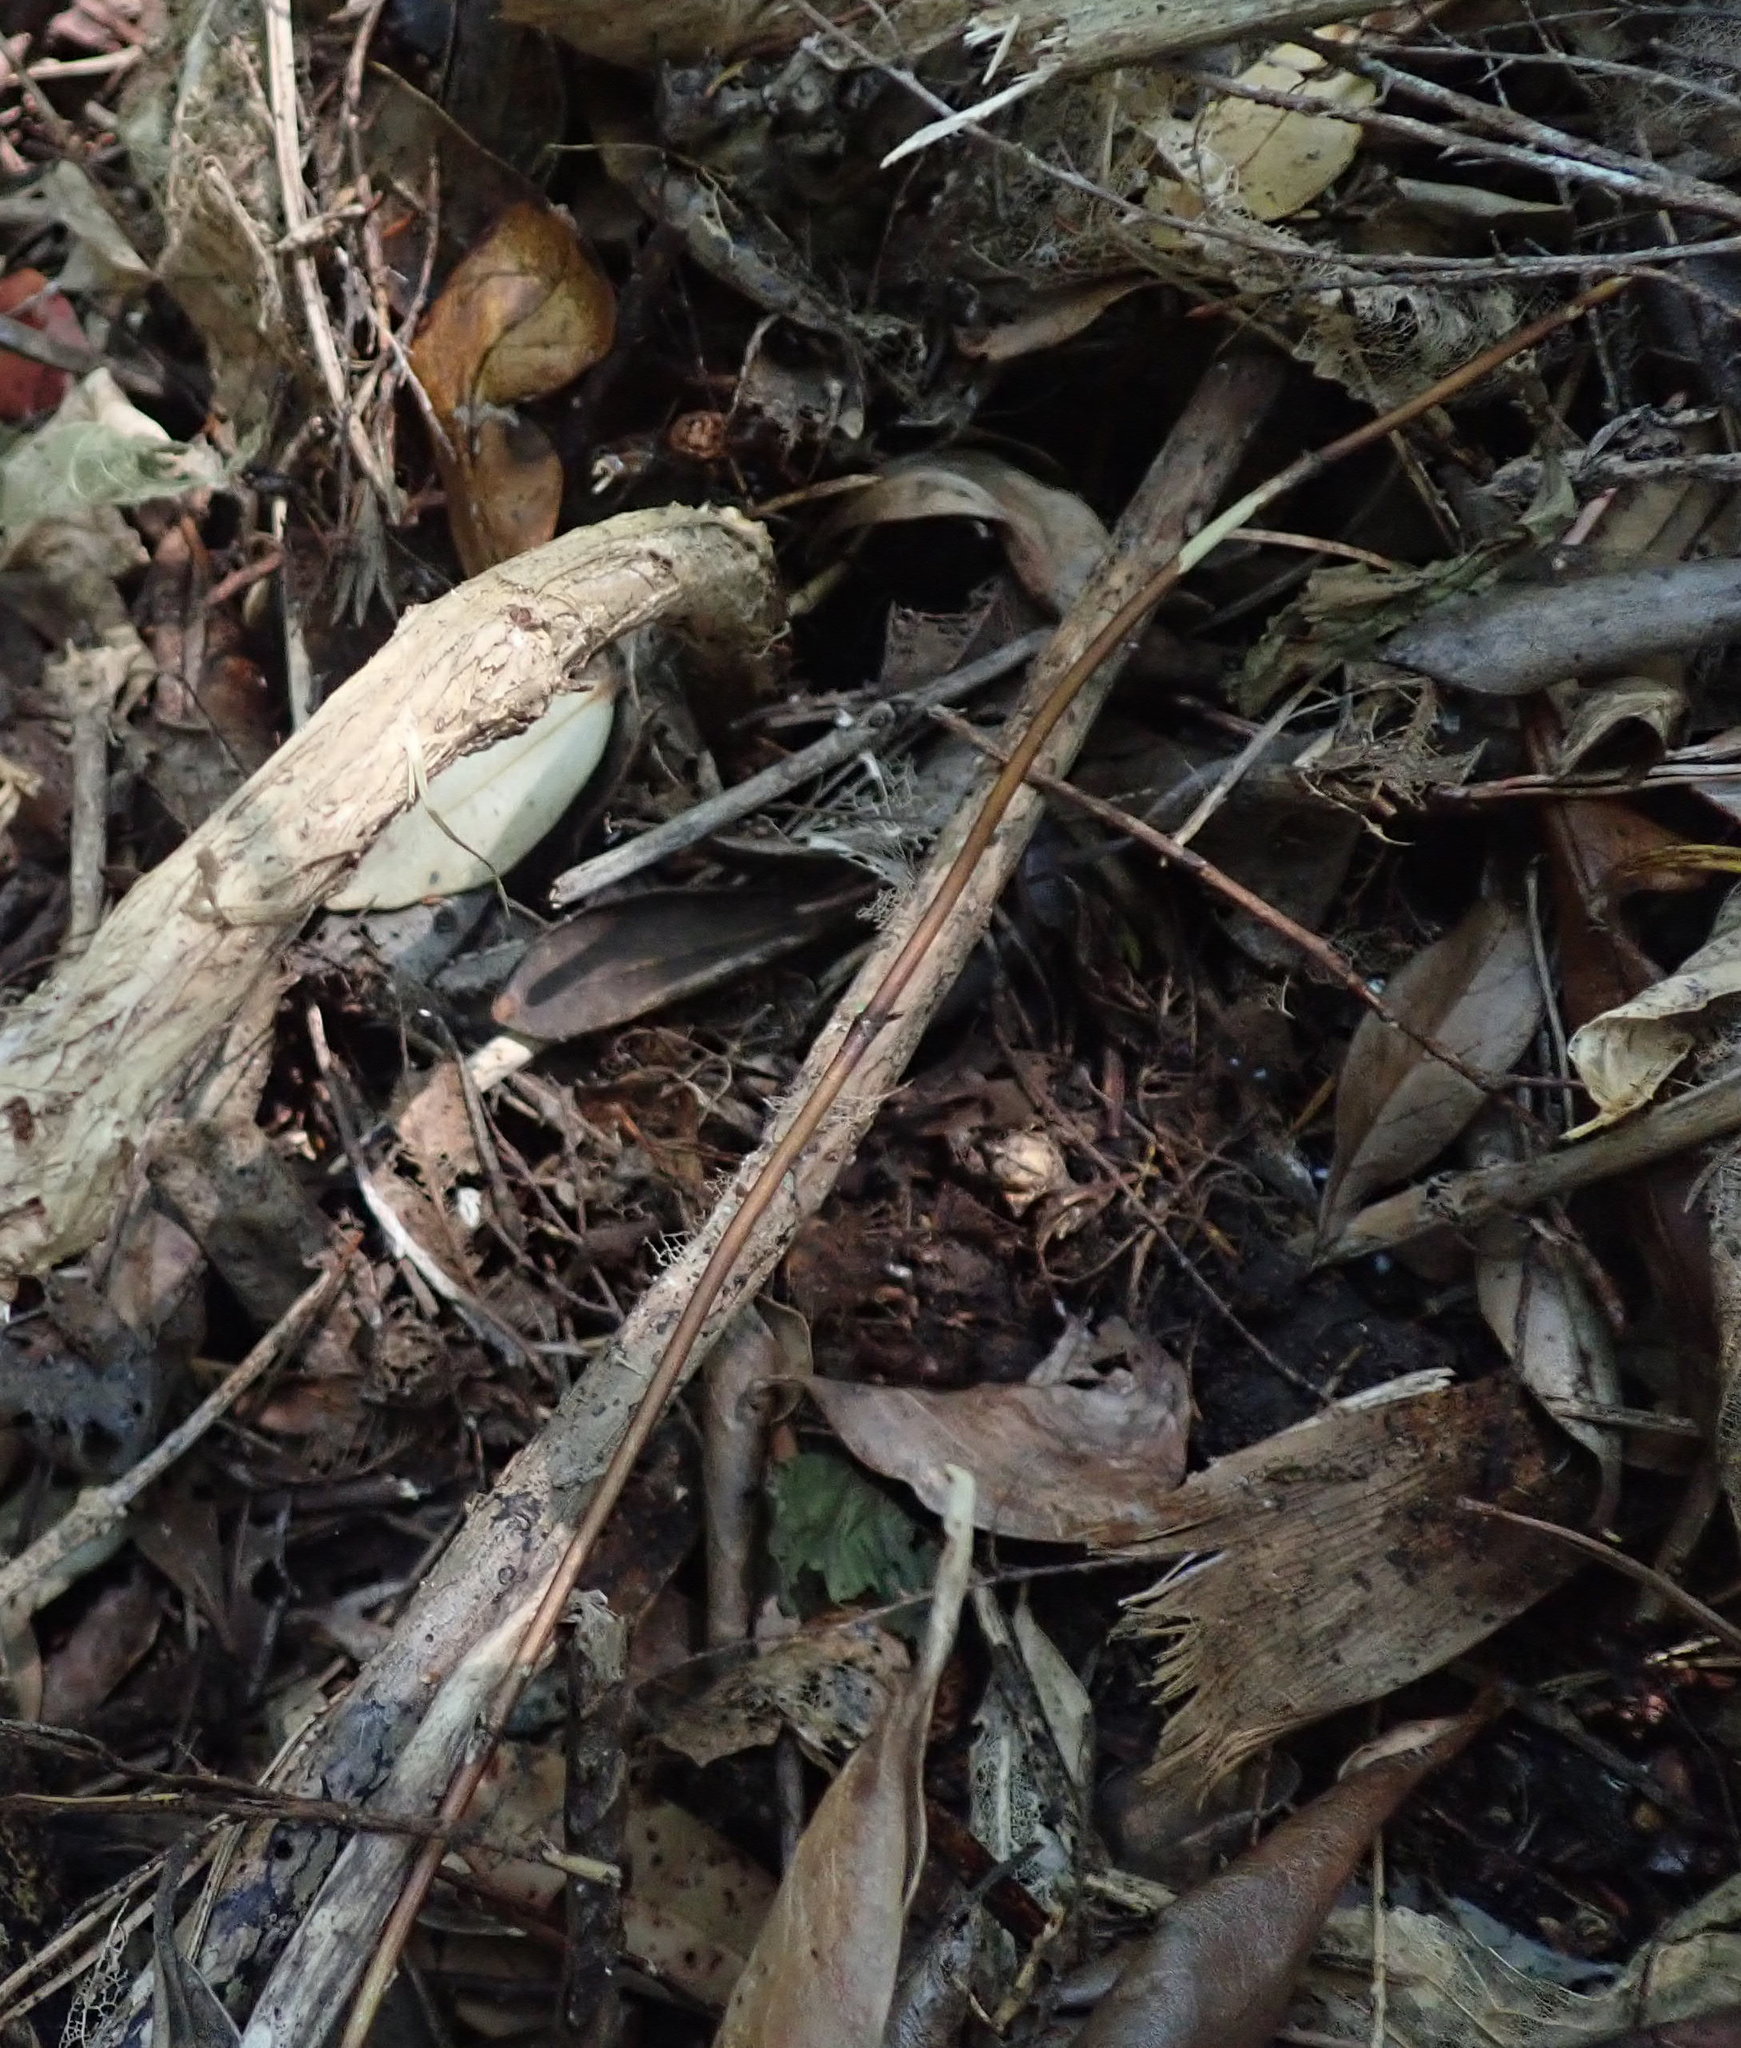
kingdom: Plantae
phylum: Tracheophyta
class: Magnoliopsida
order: Dipsacales
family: Caprifoliaceae
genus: Lonicera
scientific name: Lonicera japonica
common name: Japanese honeysuckle
